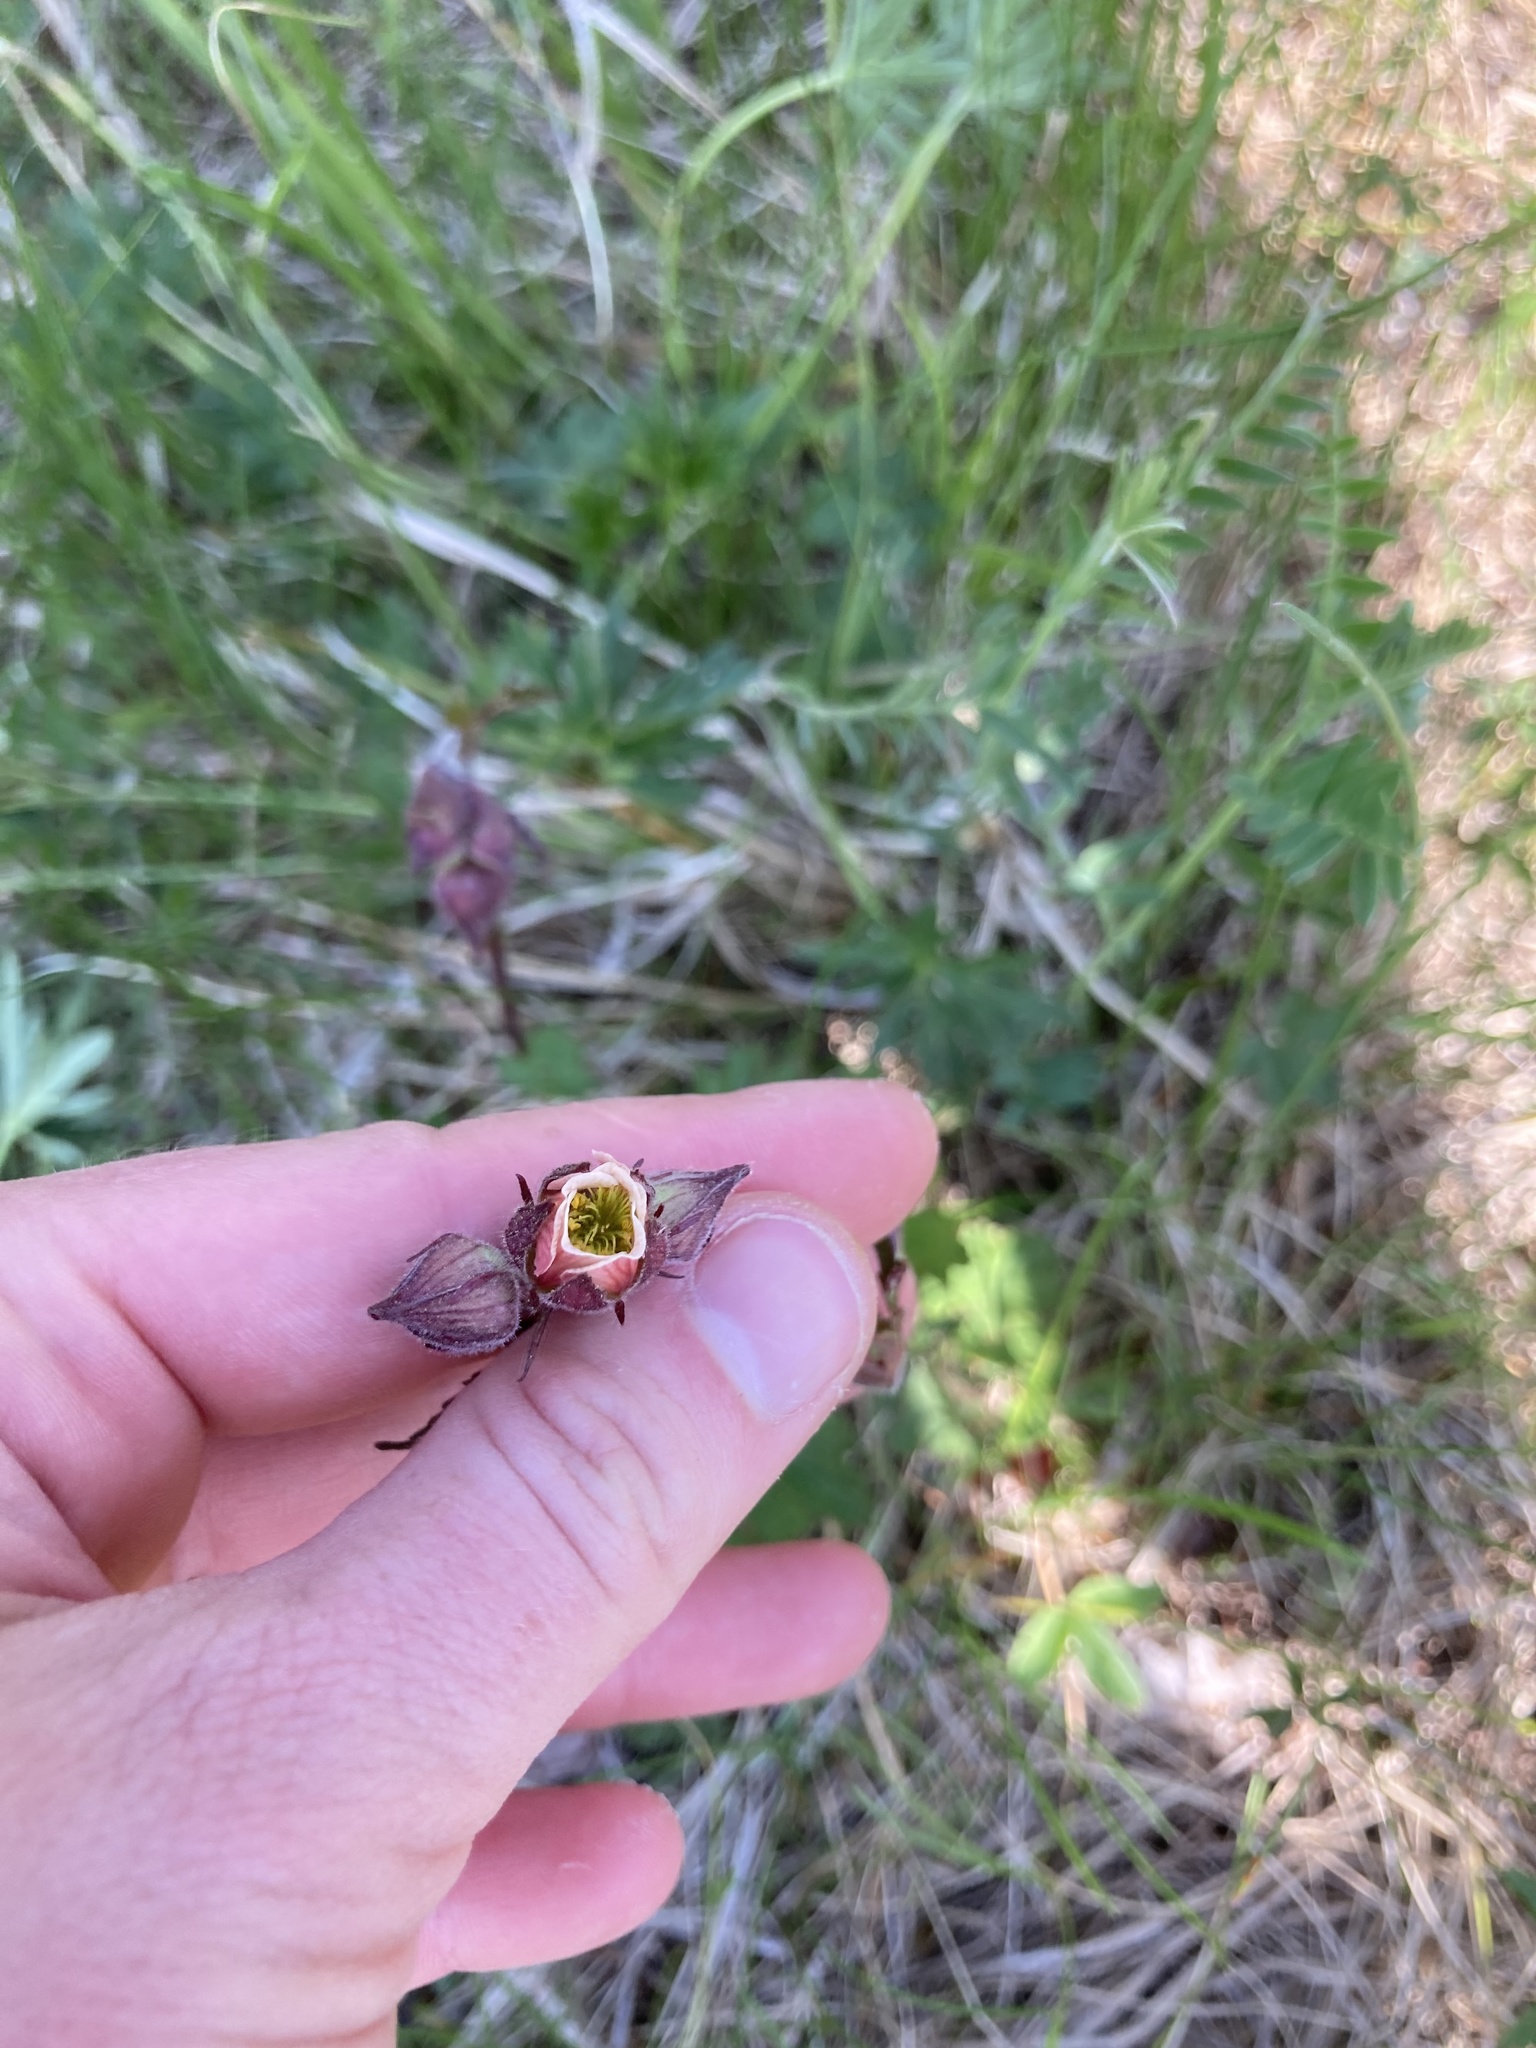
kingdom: Plantae
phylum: Tracheophyta
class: Magnoliopsida
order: Rosales
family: Rosaceae
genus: Geum
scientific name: Geum rivale
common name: Water avens
